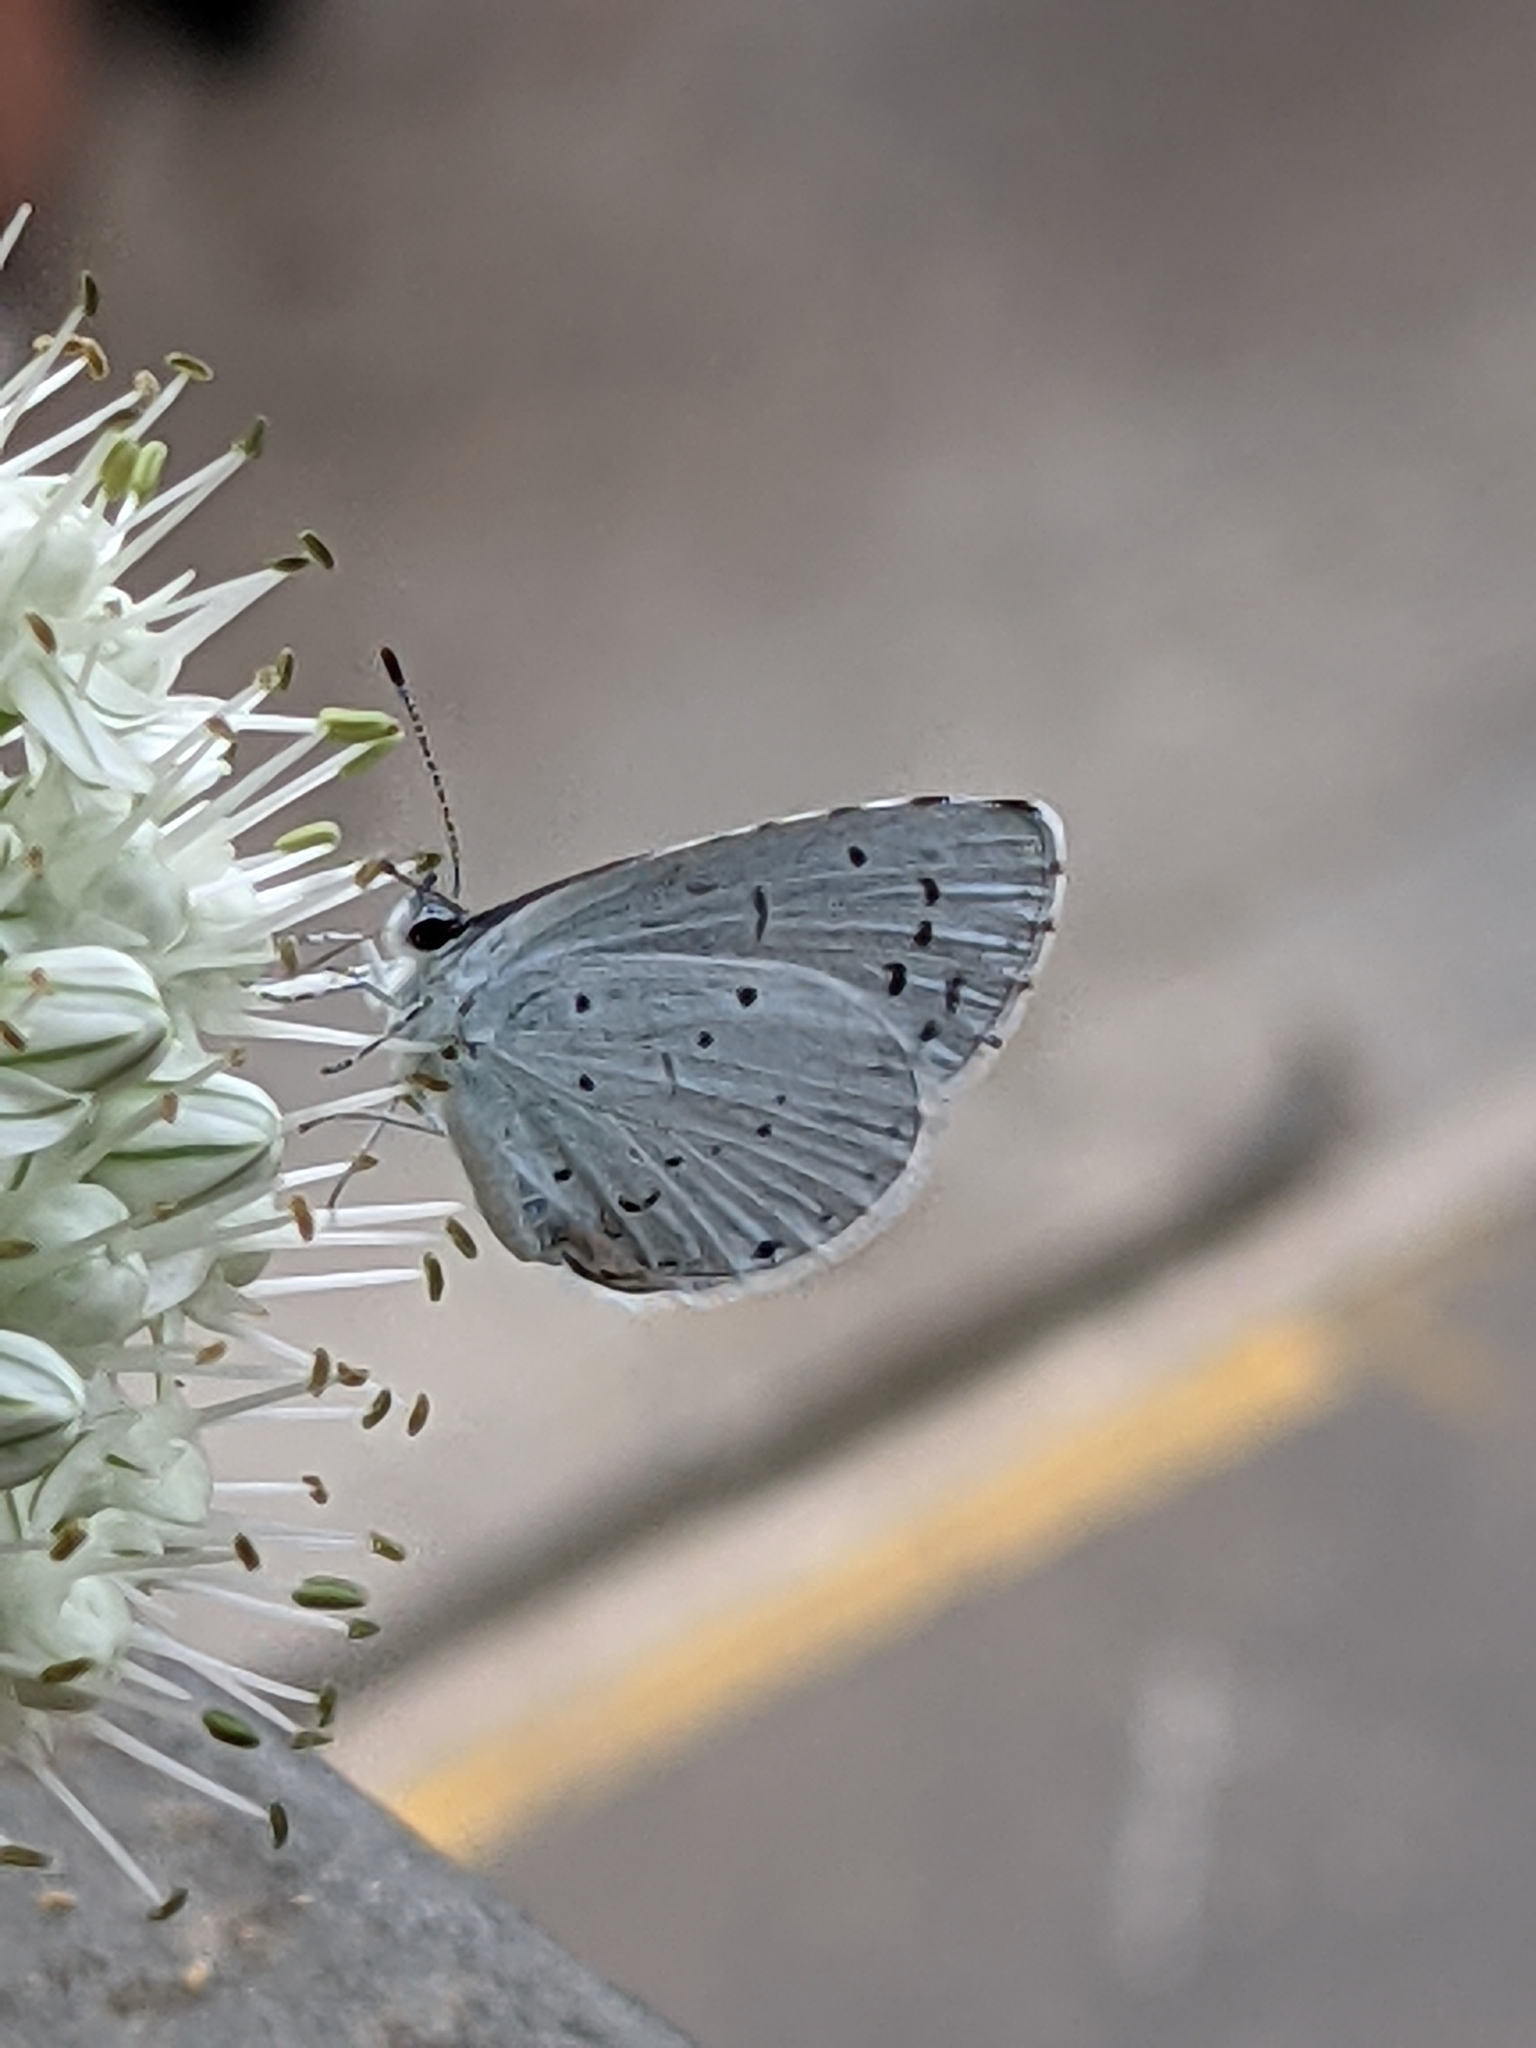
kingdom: Animalia
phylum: Arthropoda
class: Insecta
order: Lepidoptera
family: Lycaenidae
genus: Celastrina
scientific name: Celastrina argiolus
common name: Holly blue
